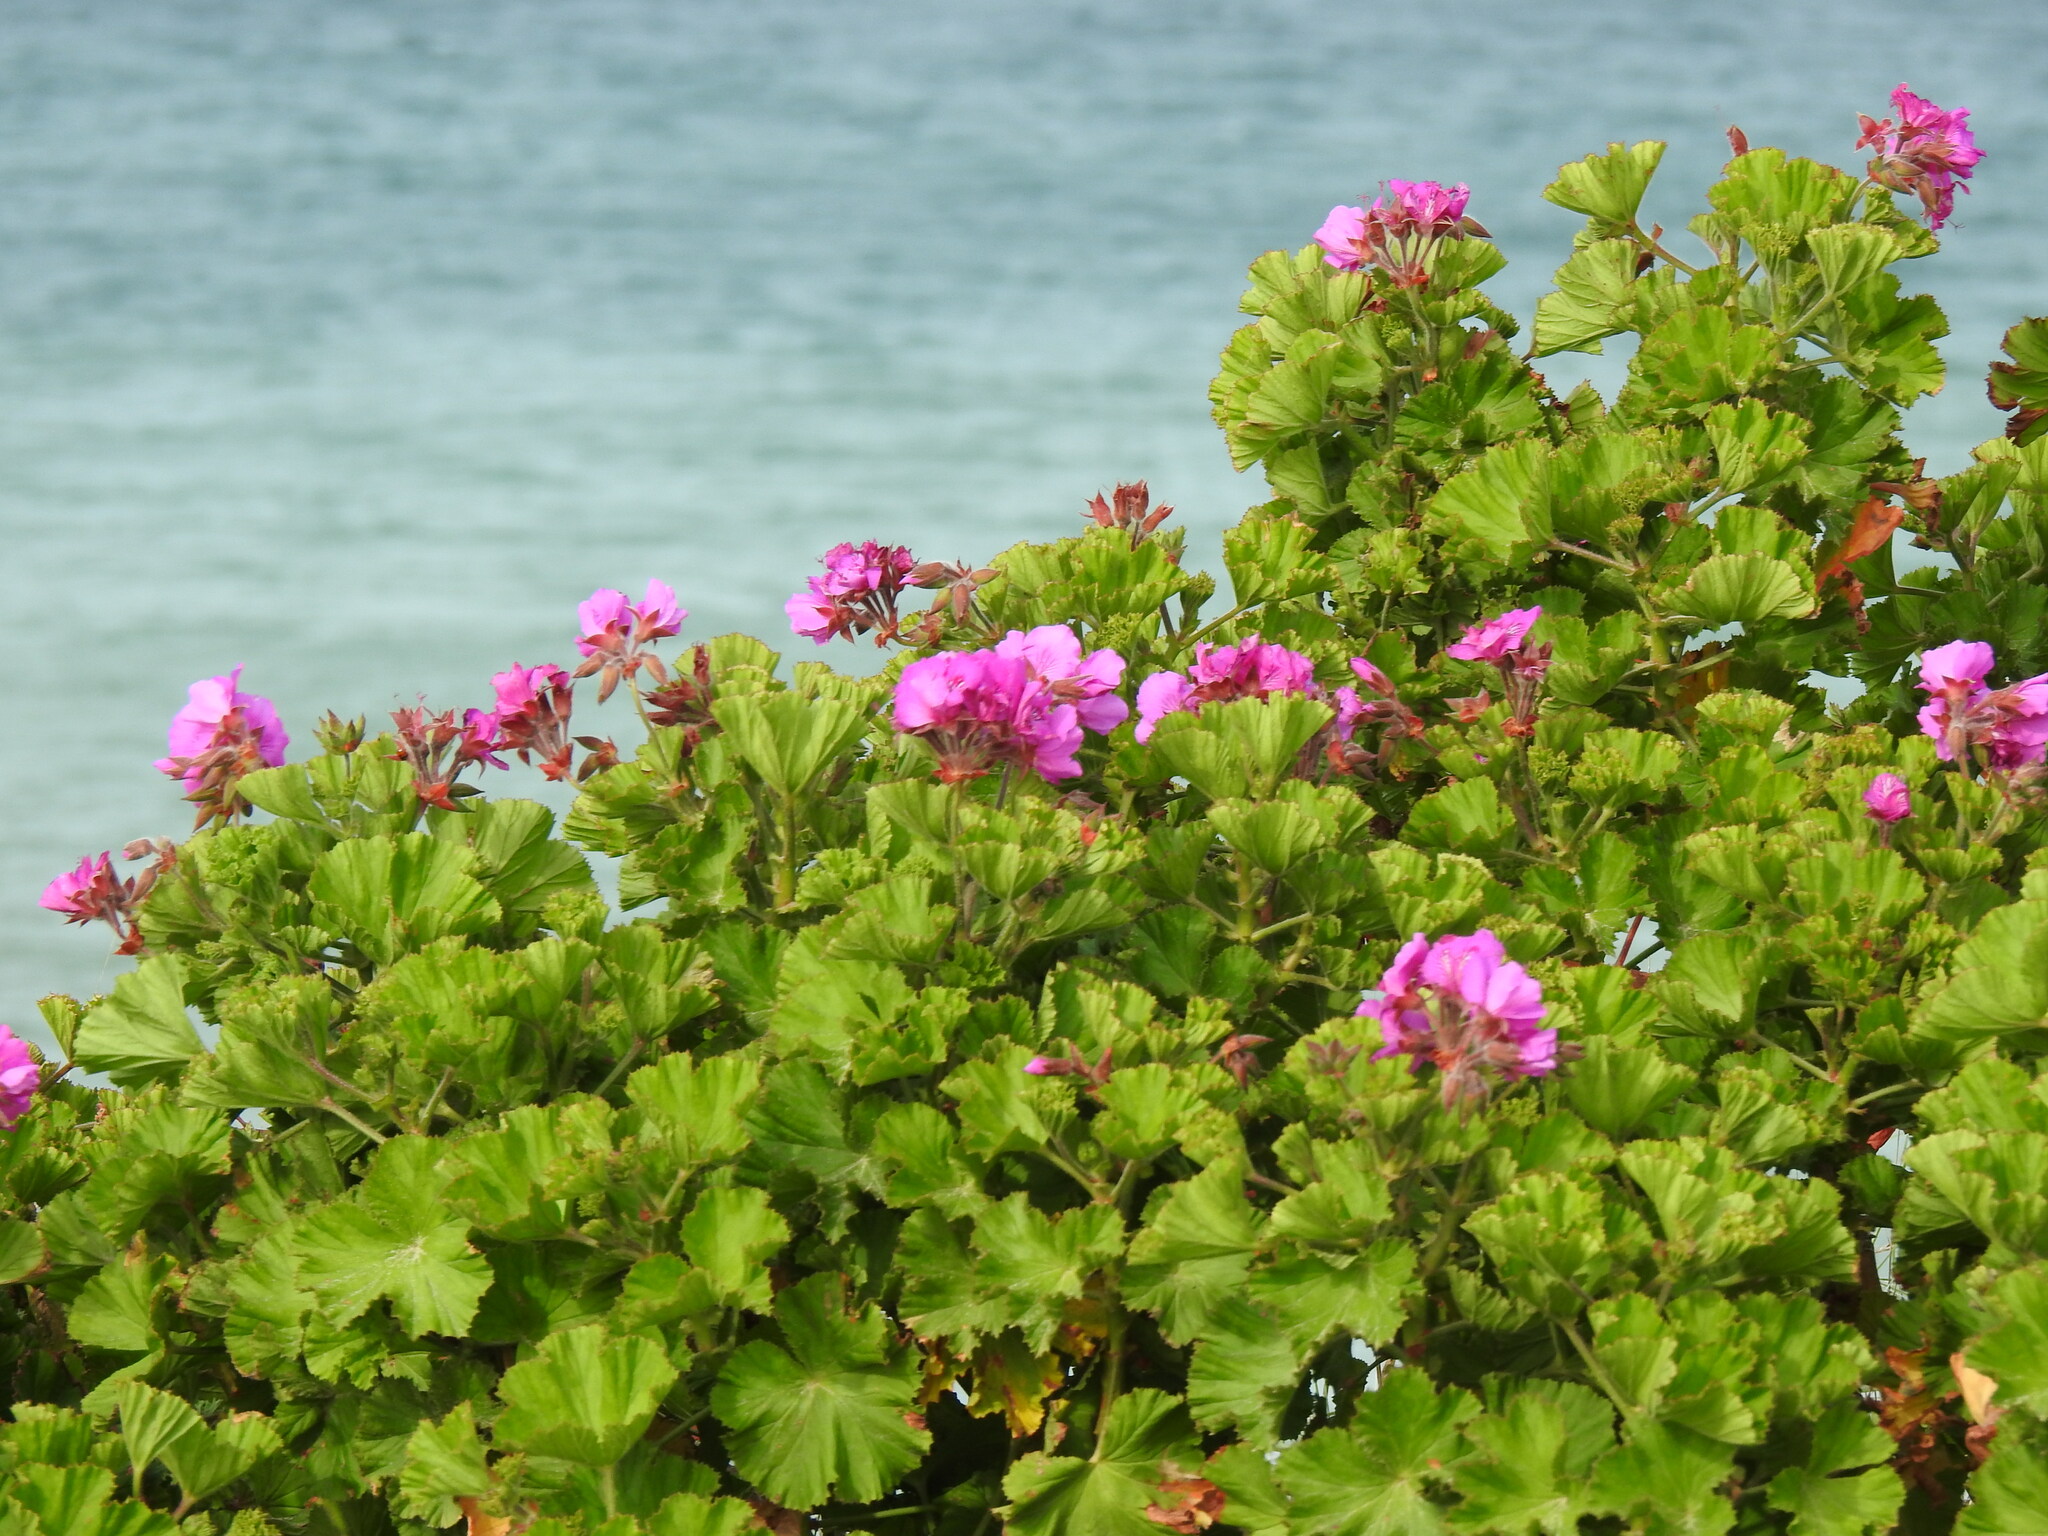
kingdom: Plantae
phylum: Tracheophyta
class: Magnoliopsida
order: Geraniales
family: Geraniaceae
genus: Pelargonium
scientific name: Pelargonium cucullatum
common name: Tree pelargonium
